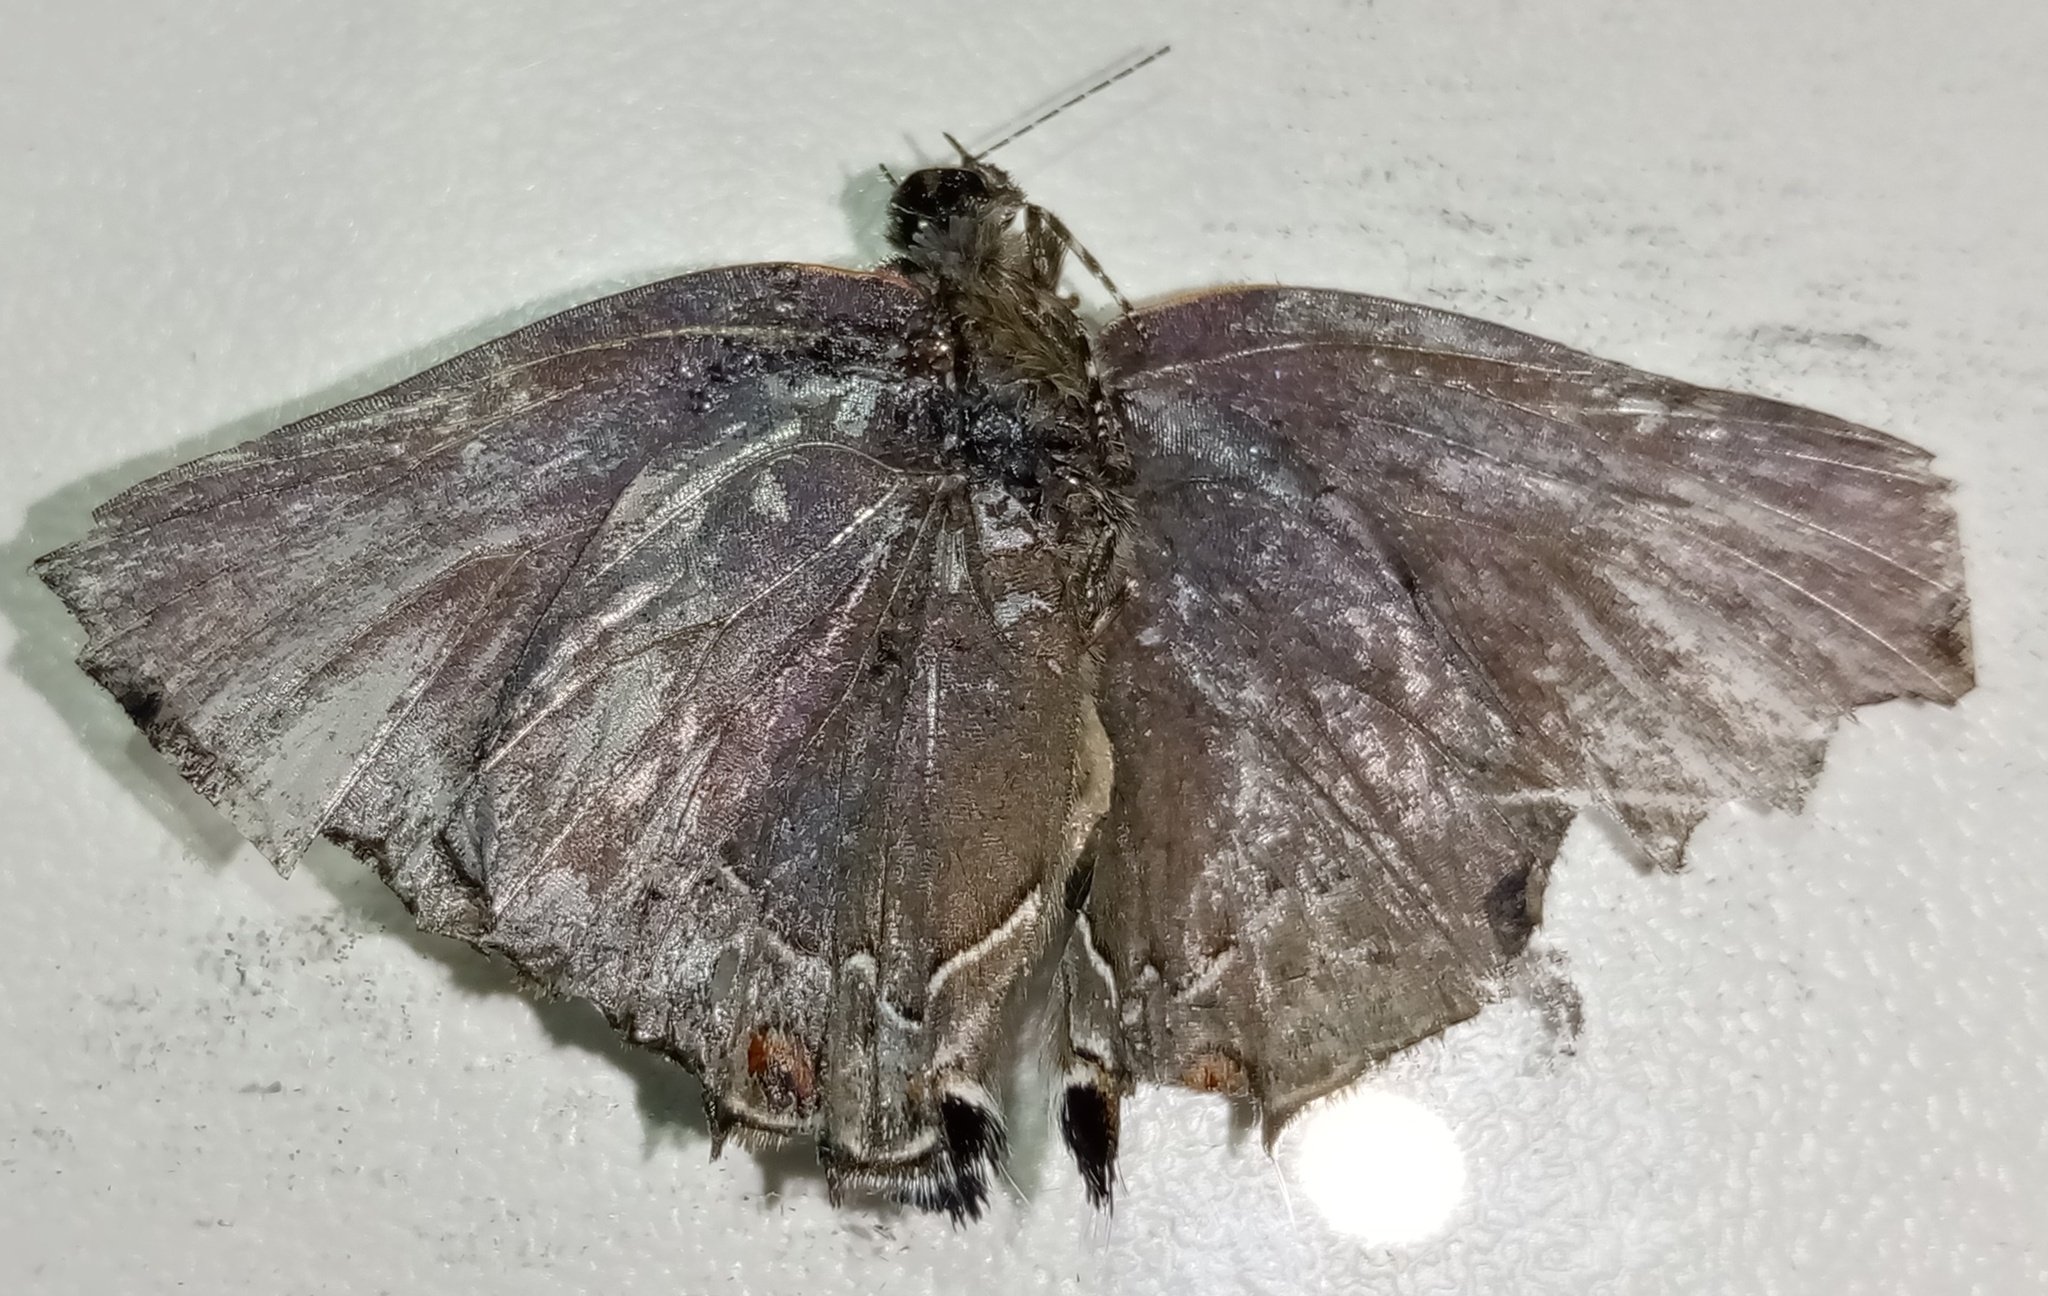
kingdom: Animalia
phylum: Arthropoda
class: Insecta
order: Lepidoptera
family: Lycaenidae
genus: Ziegleria
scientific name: Ziegleria hesperitis
